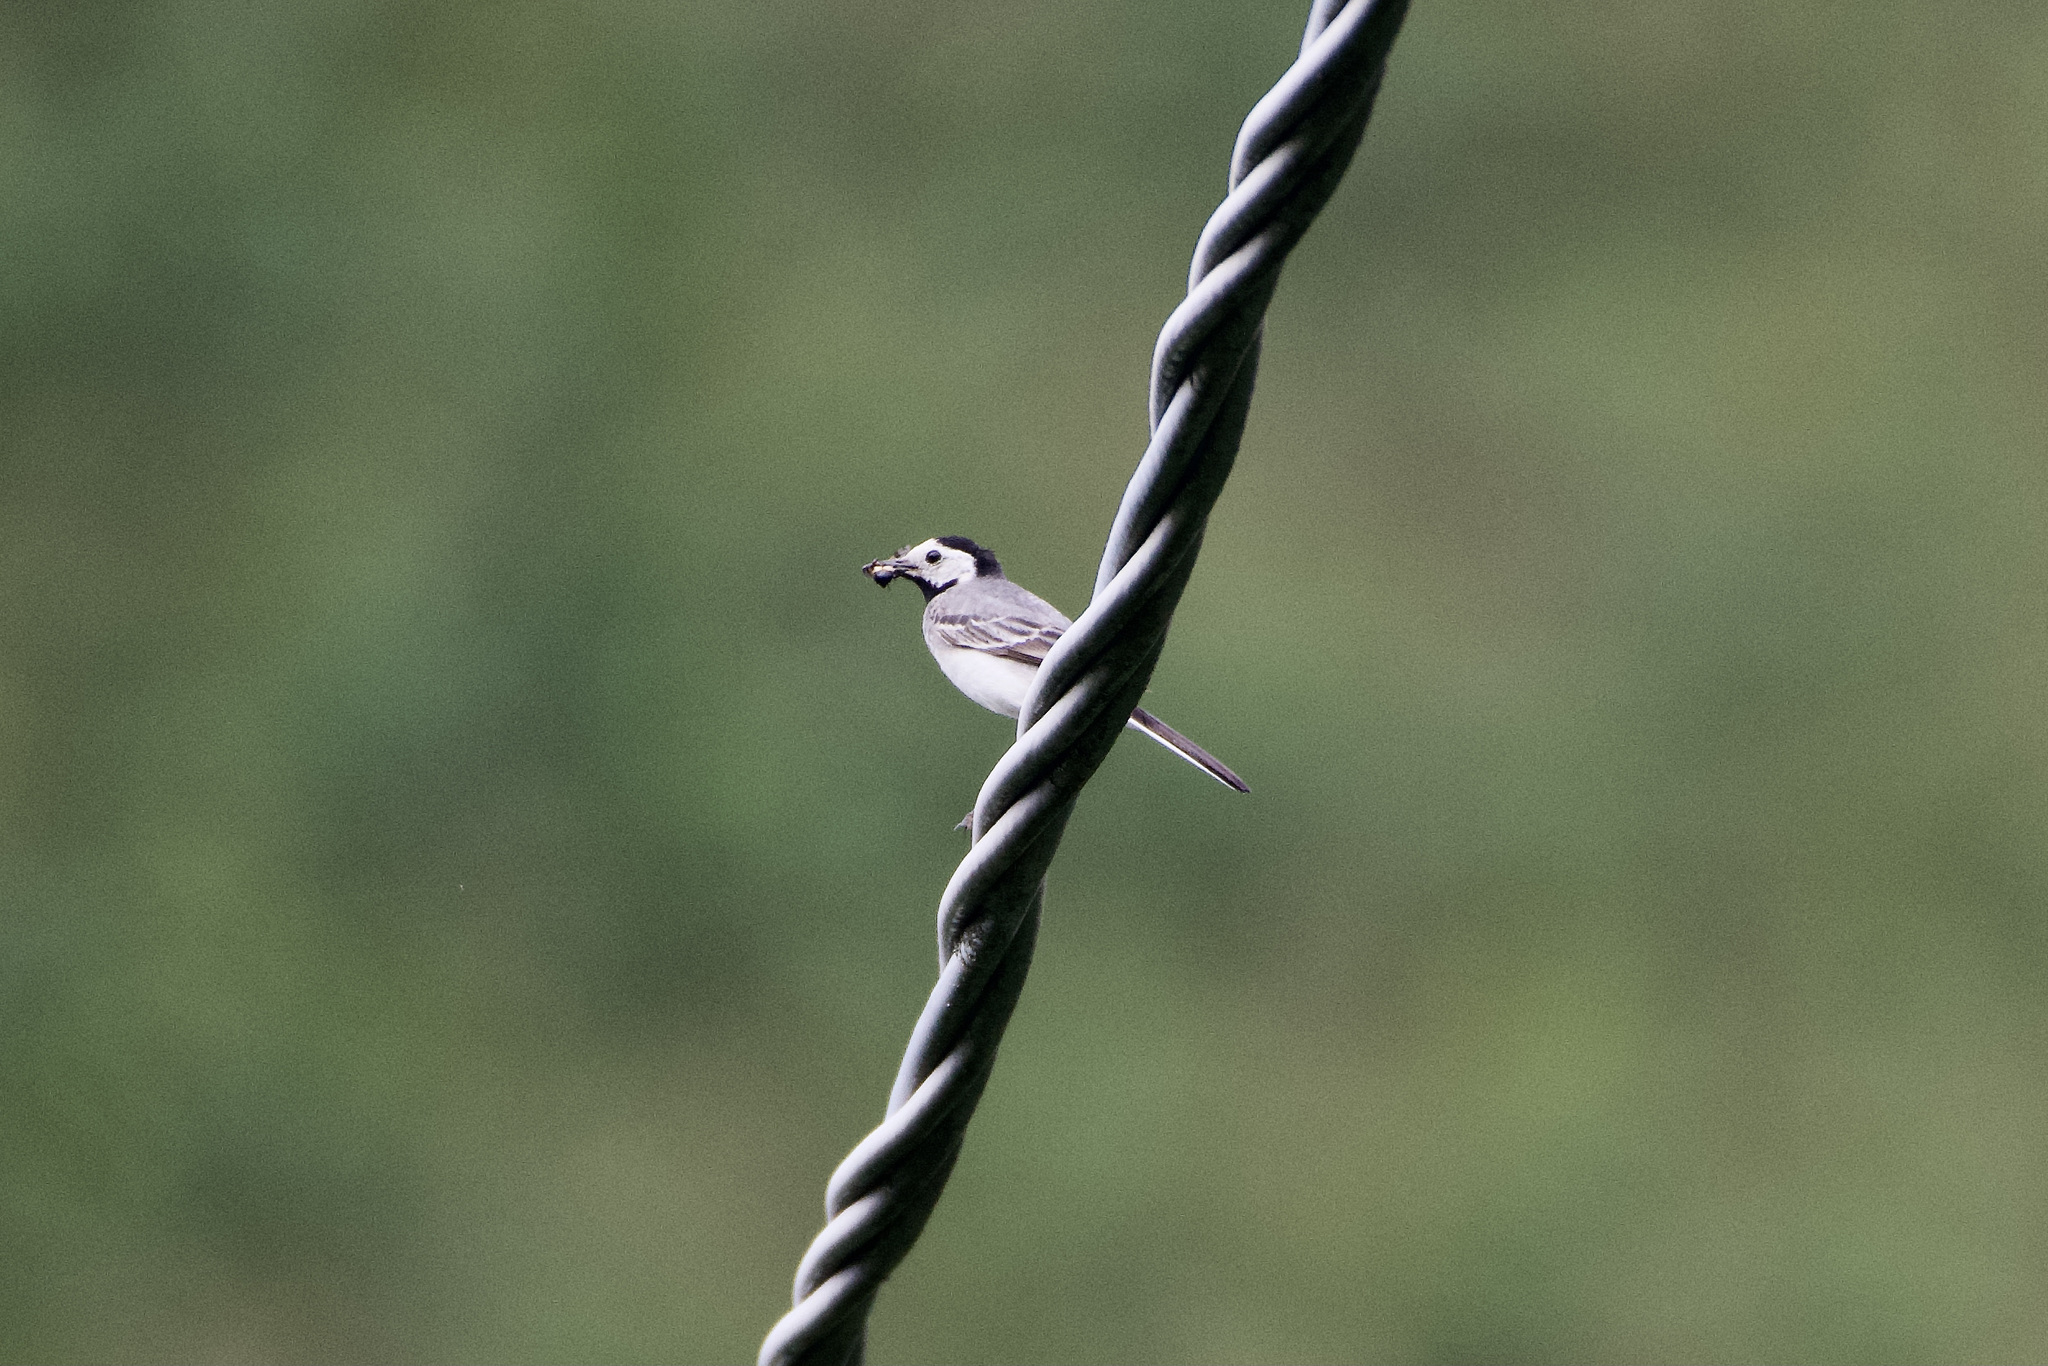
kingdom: Animalia
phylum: Chordata
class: Aves
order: Passeriformes
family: Motacillidae
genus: Motacilla
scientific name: Motacilla alba
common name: White wagtail
